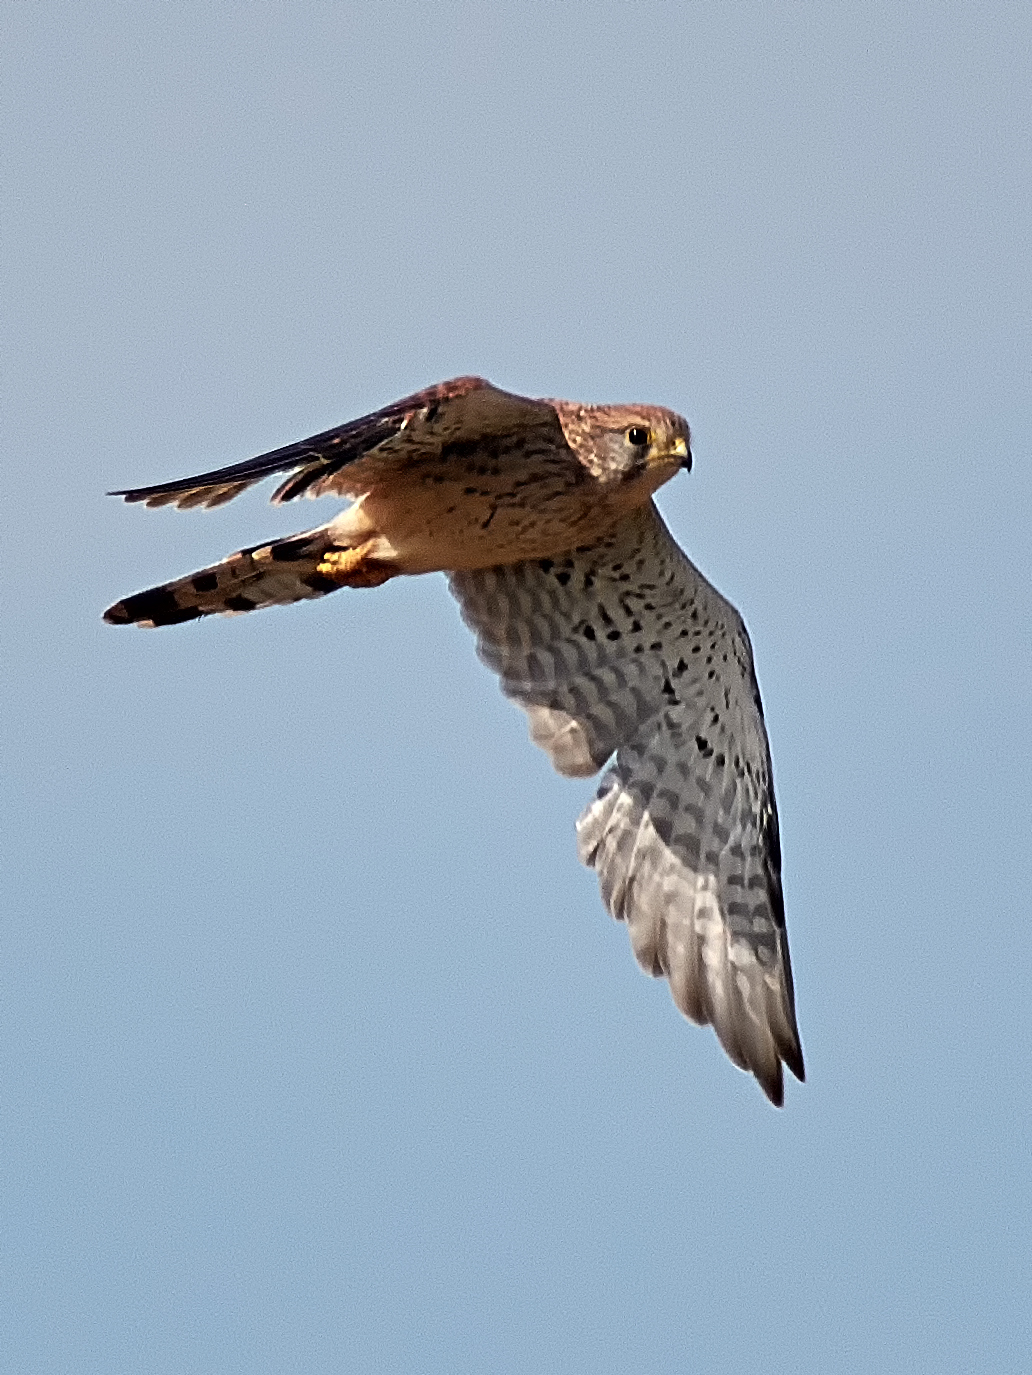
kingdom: Animalia
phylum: Chordata
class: Aves
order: Falconiformes
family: Falconidae
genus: Falco
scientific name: Falco tinnunculus
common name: Common kestrel
